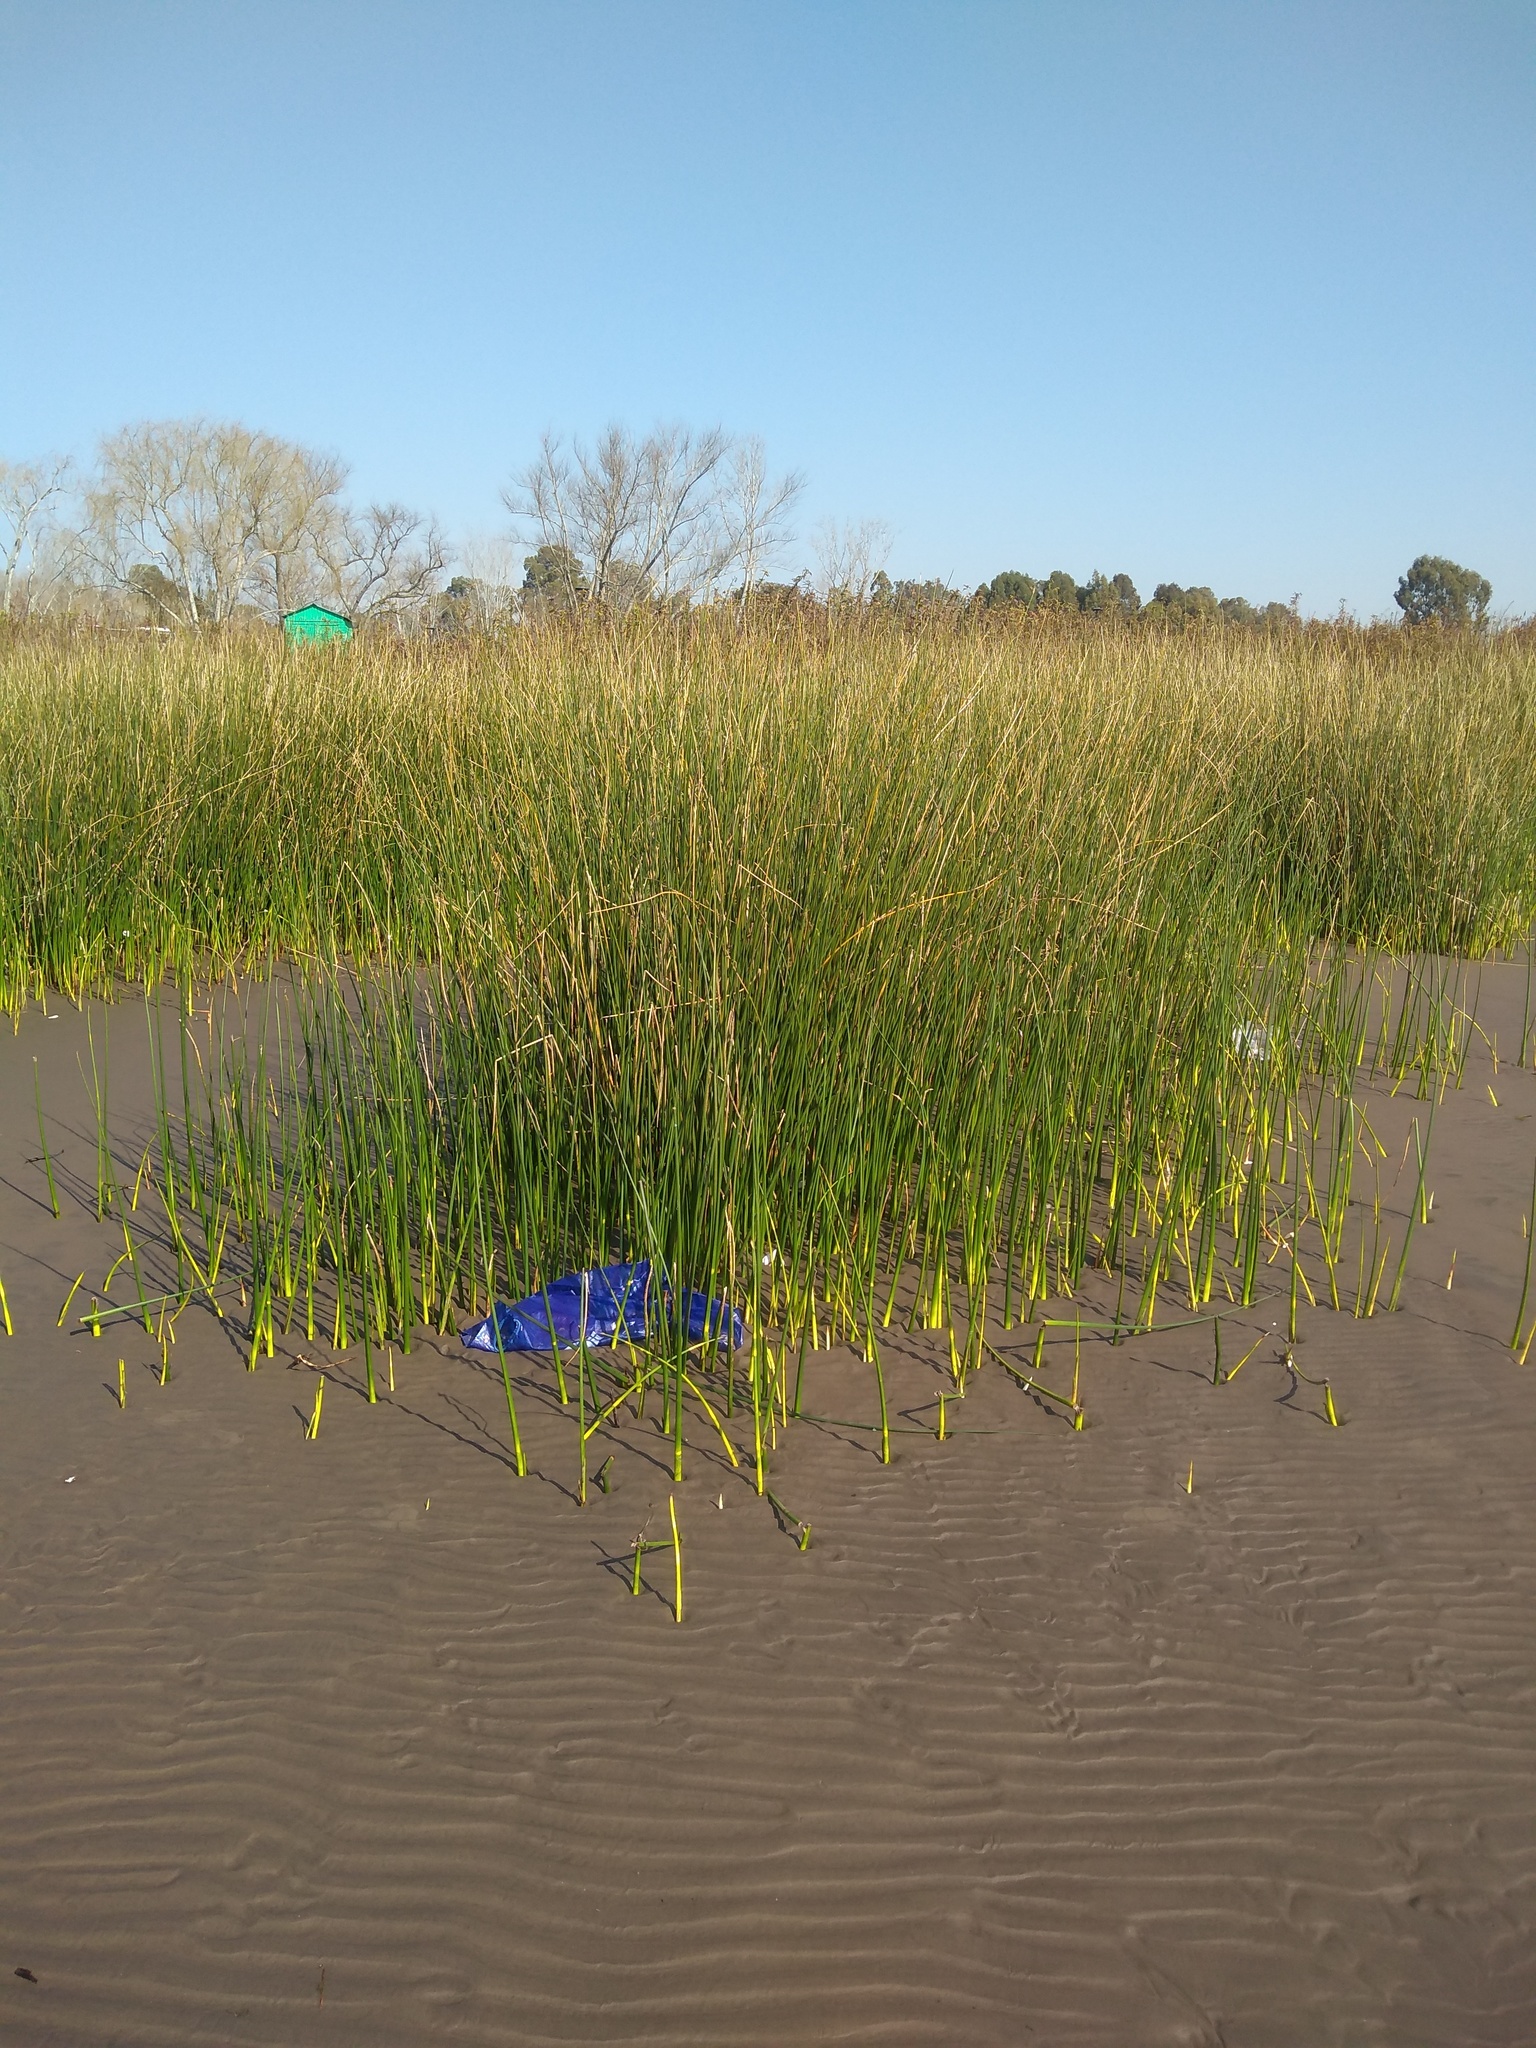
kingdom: Plantae
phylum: Tracheophyta
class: Liliopsida
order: Poales
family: Cyperaceae
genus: Schoenoplectus
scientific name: Schoenoplectus californicus
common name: California bulrush
